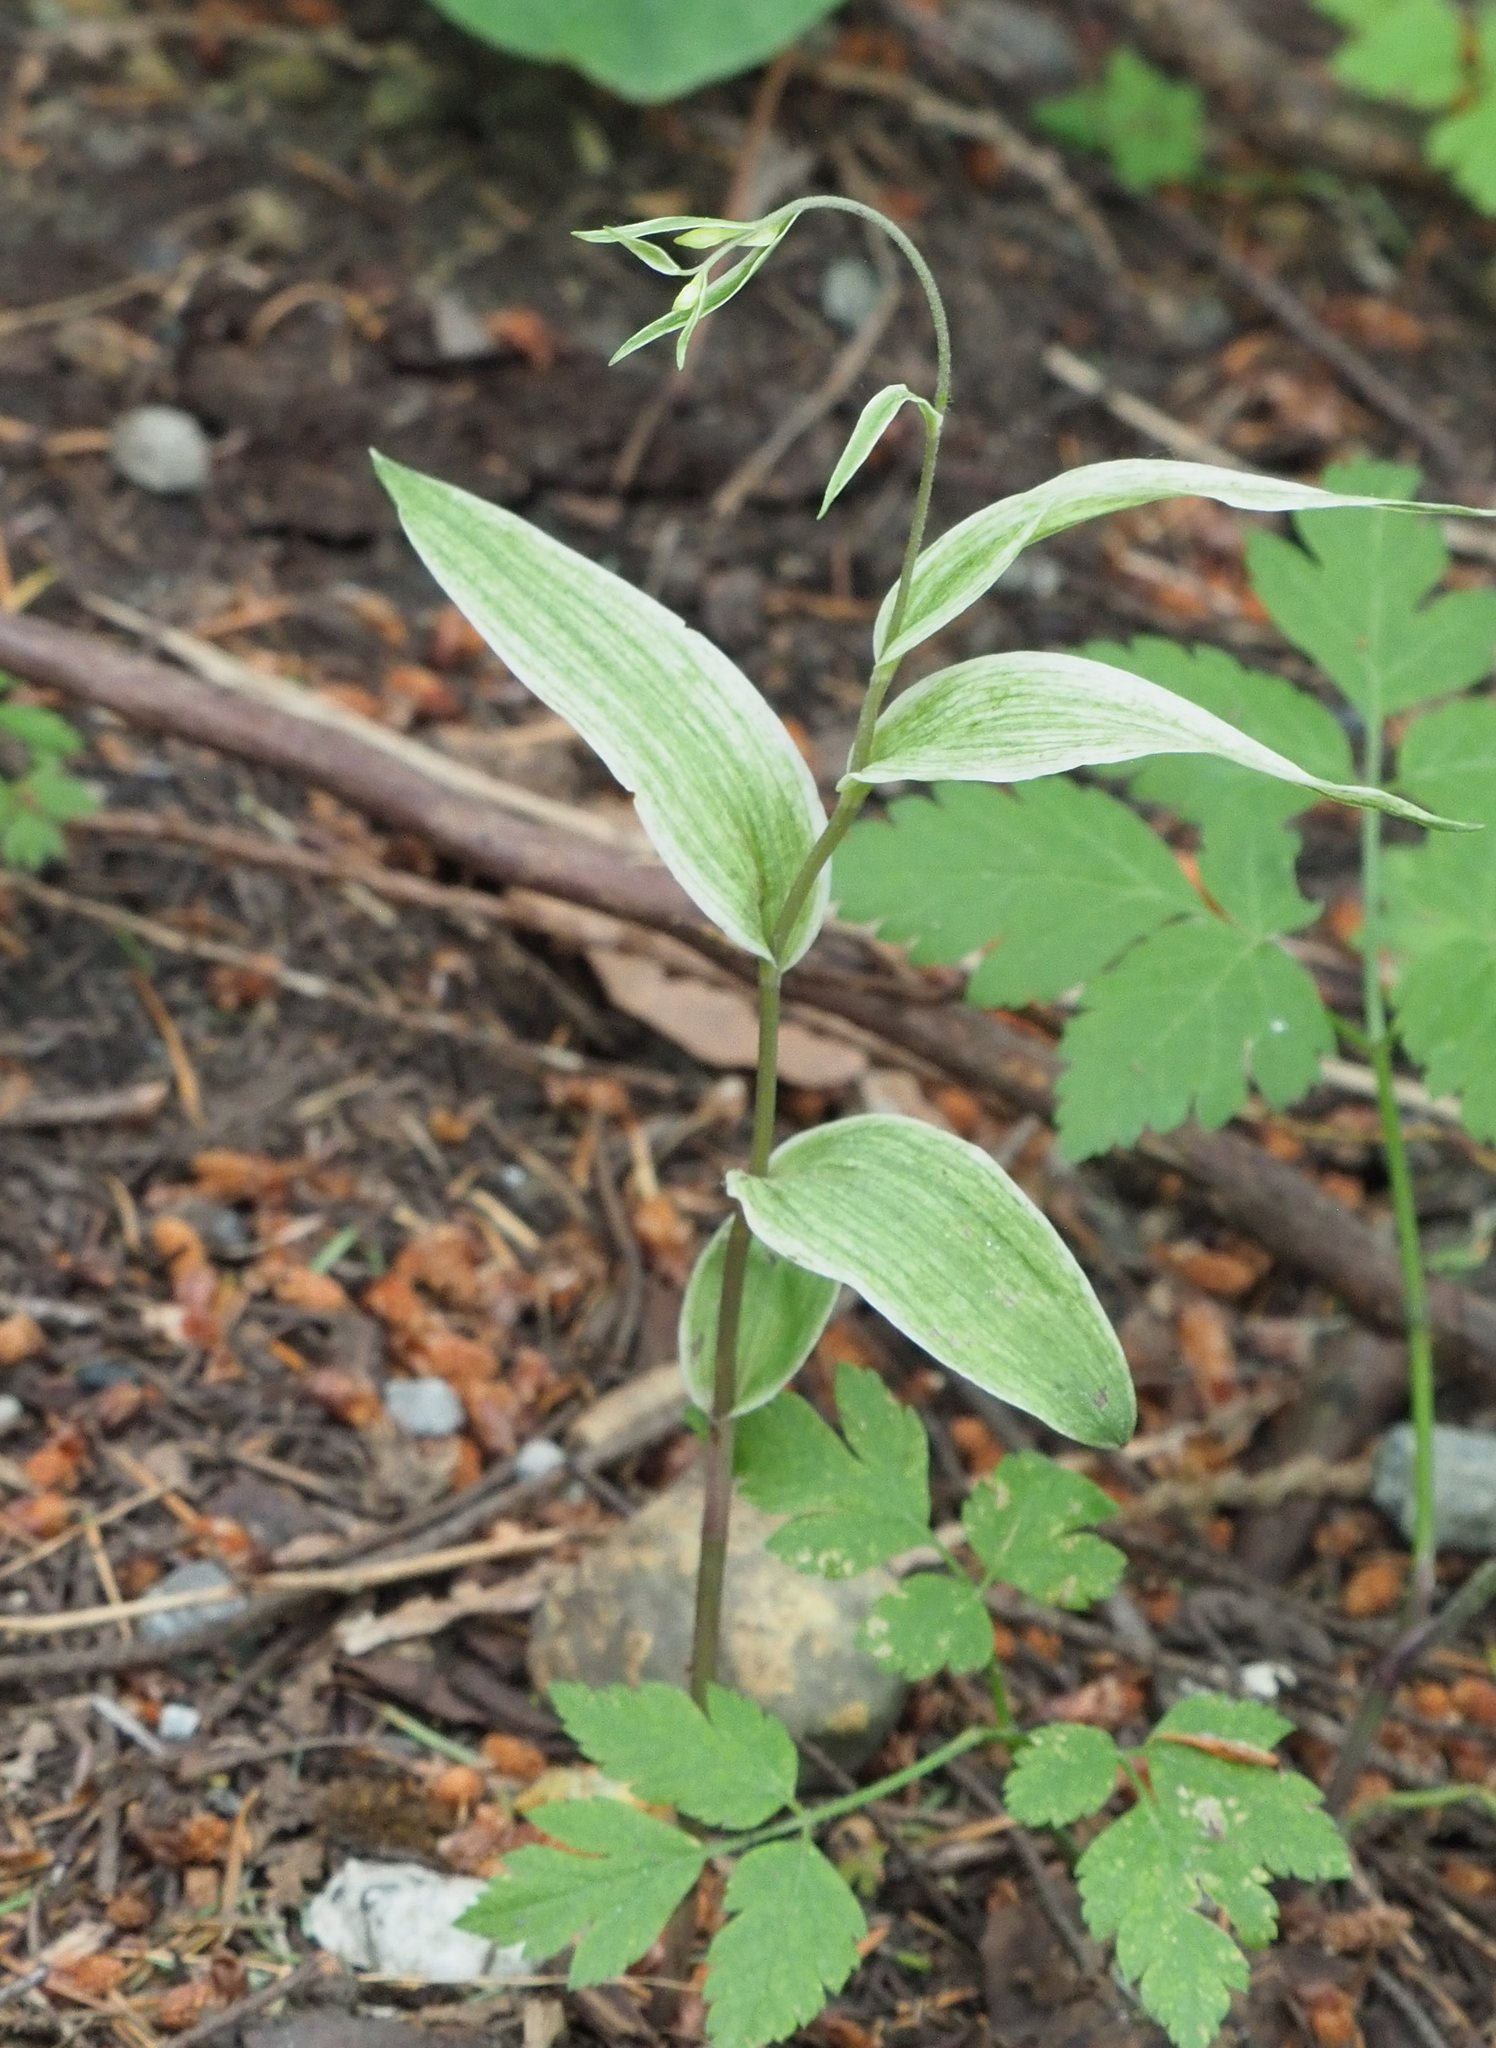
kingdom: Plantae
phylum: Tracheophyta
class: Liliopsida
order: Asparagales
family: Orchidaceae
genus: Epipactis
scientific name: Epipactis helleborine
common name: Broad-leaved helleborine
